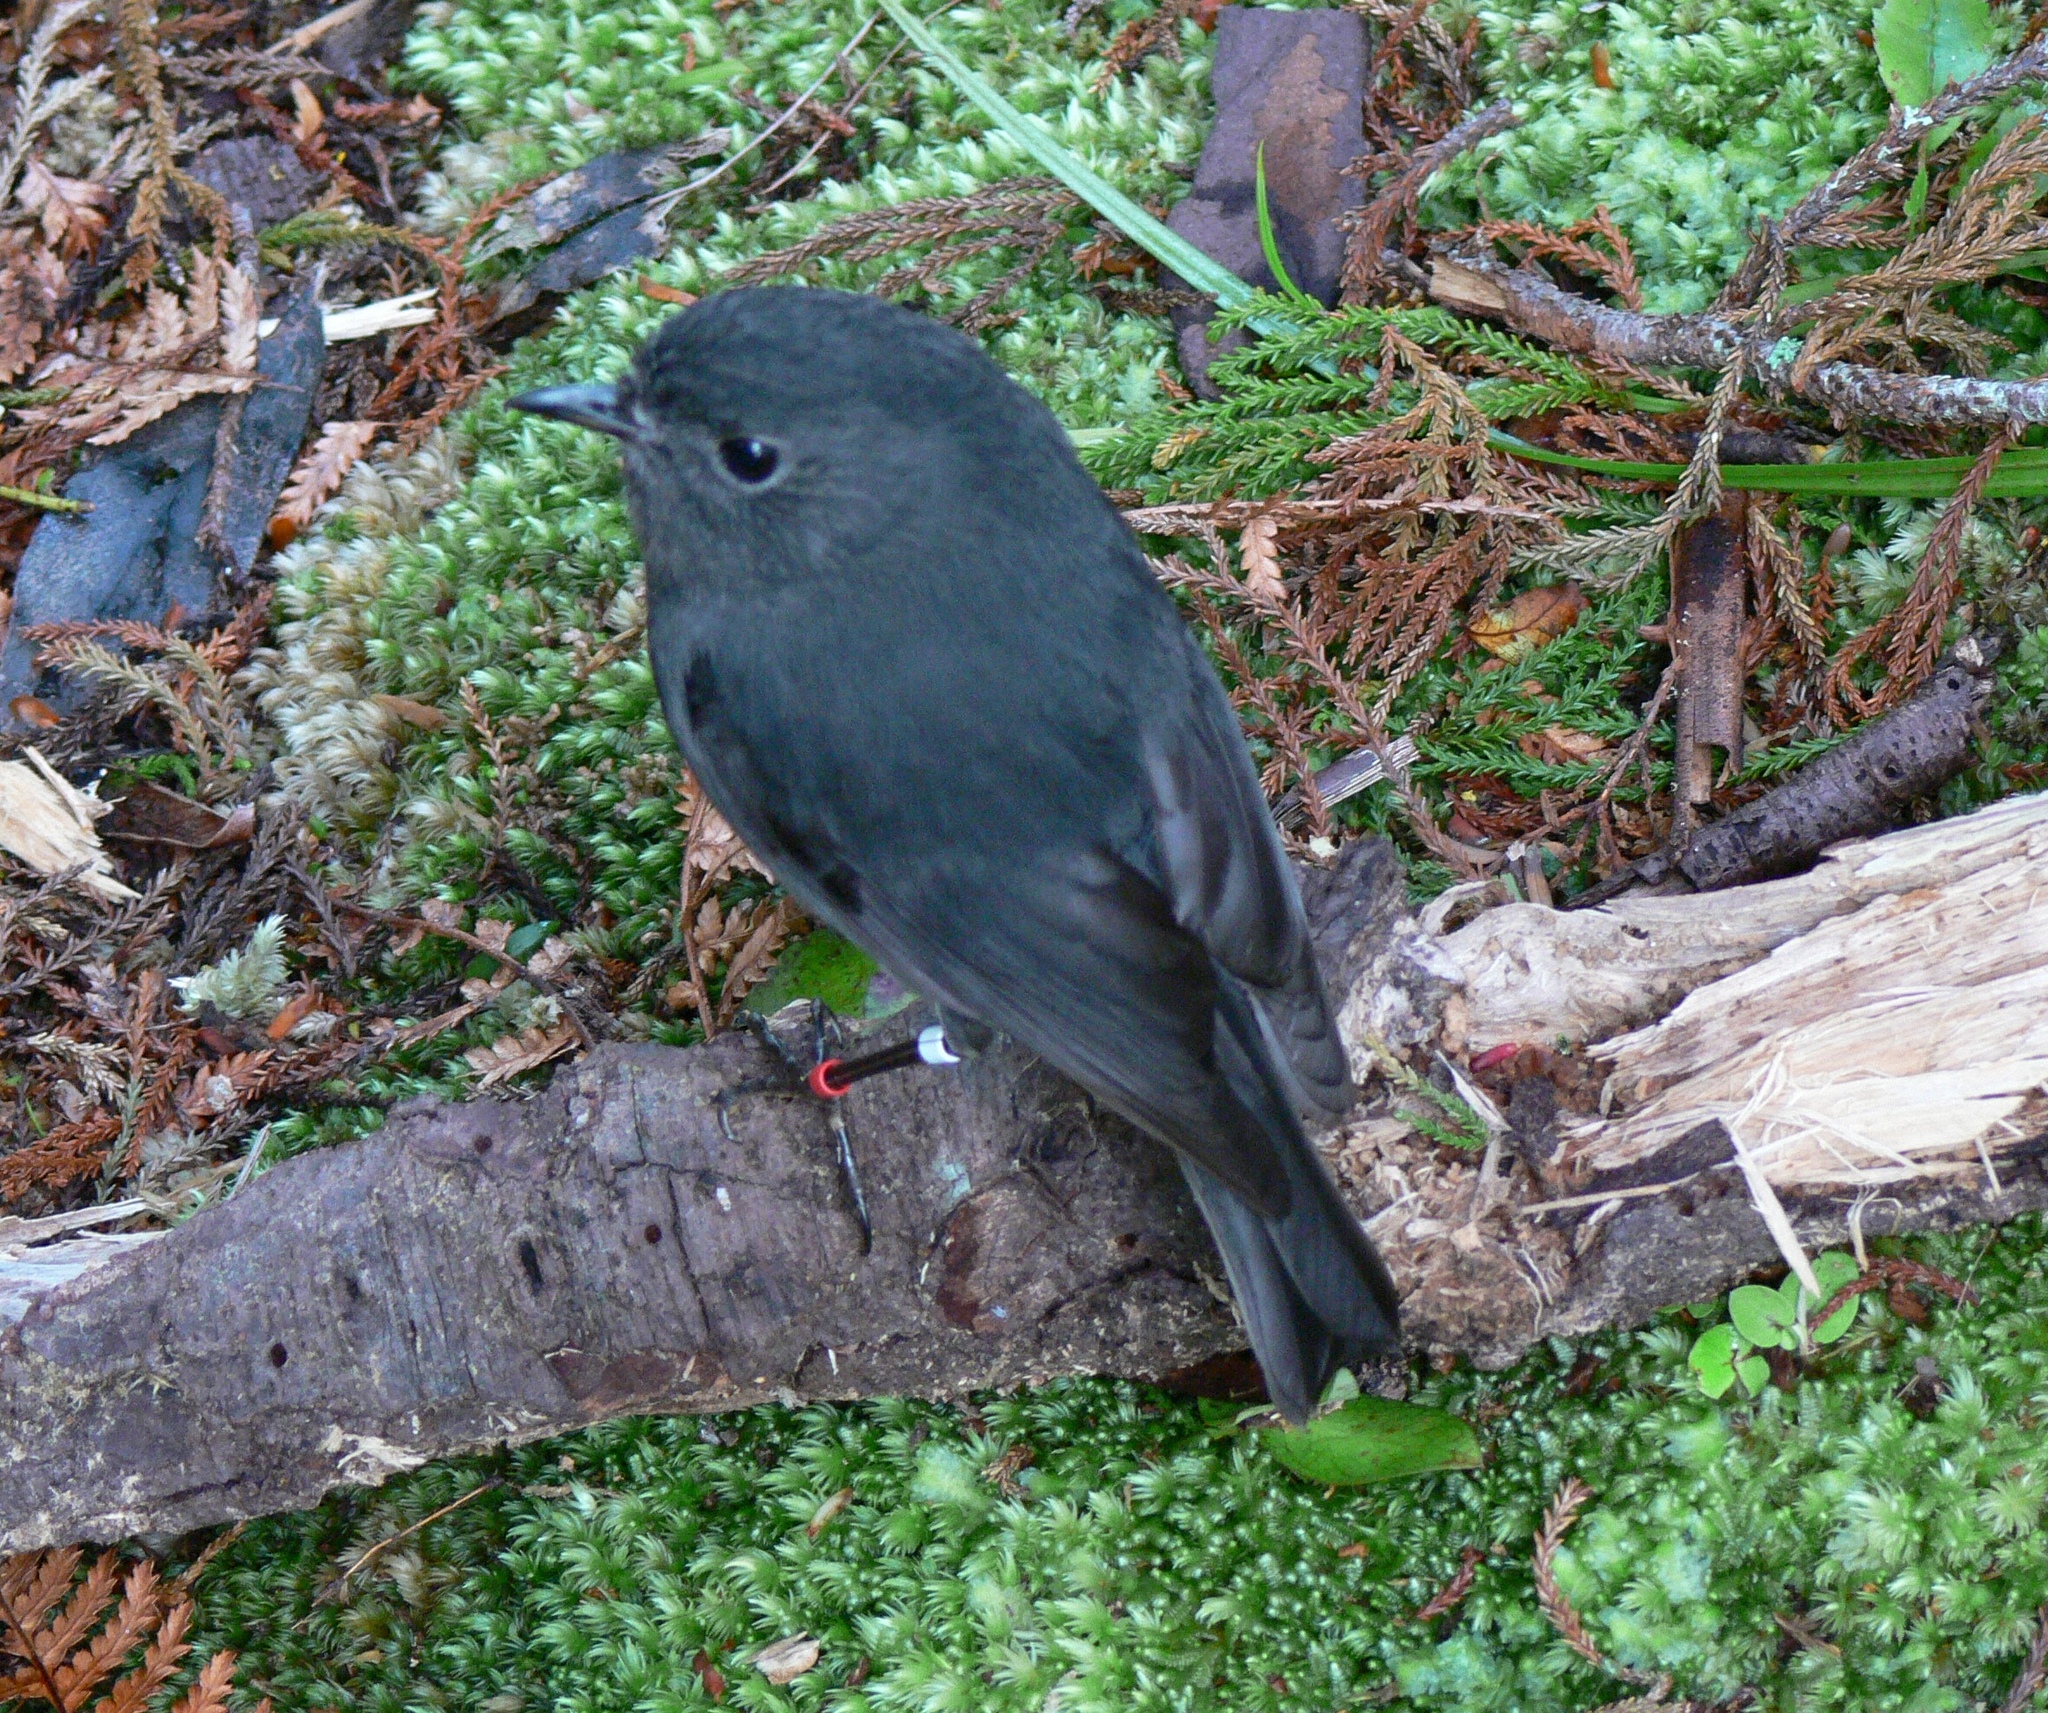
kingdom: Animalia
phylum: Chordata
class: Aves
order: Passeriformes
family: Petroicidae
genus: Petroica
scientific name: Petroica australis
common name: New zealand robin
